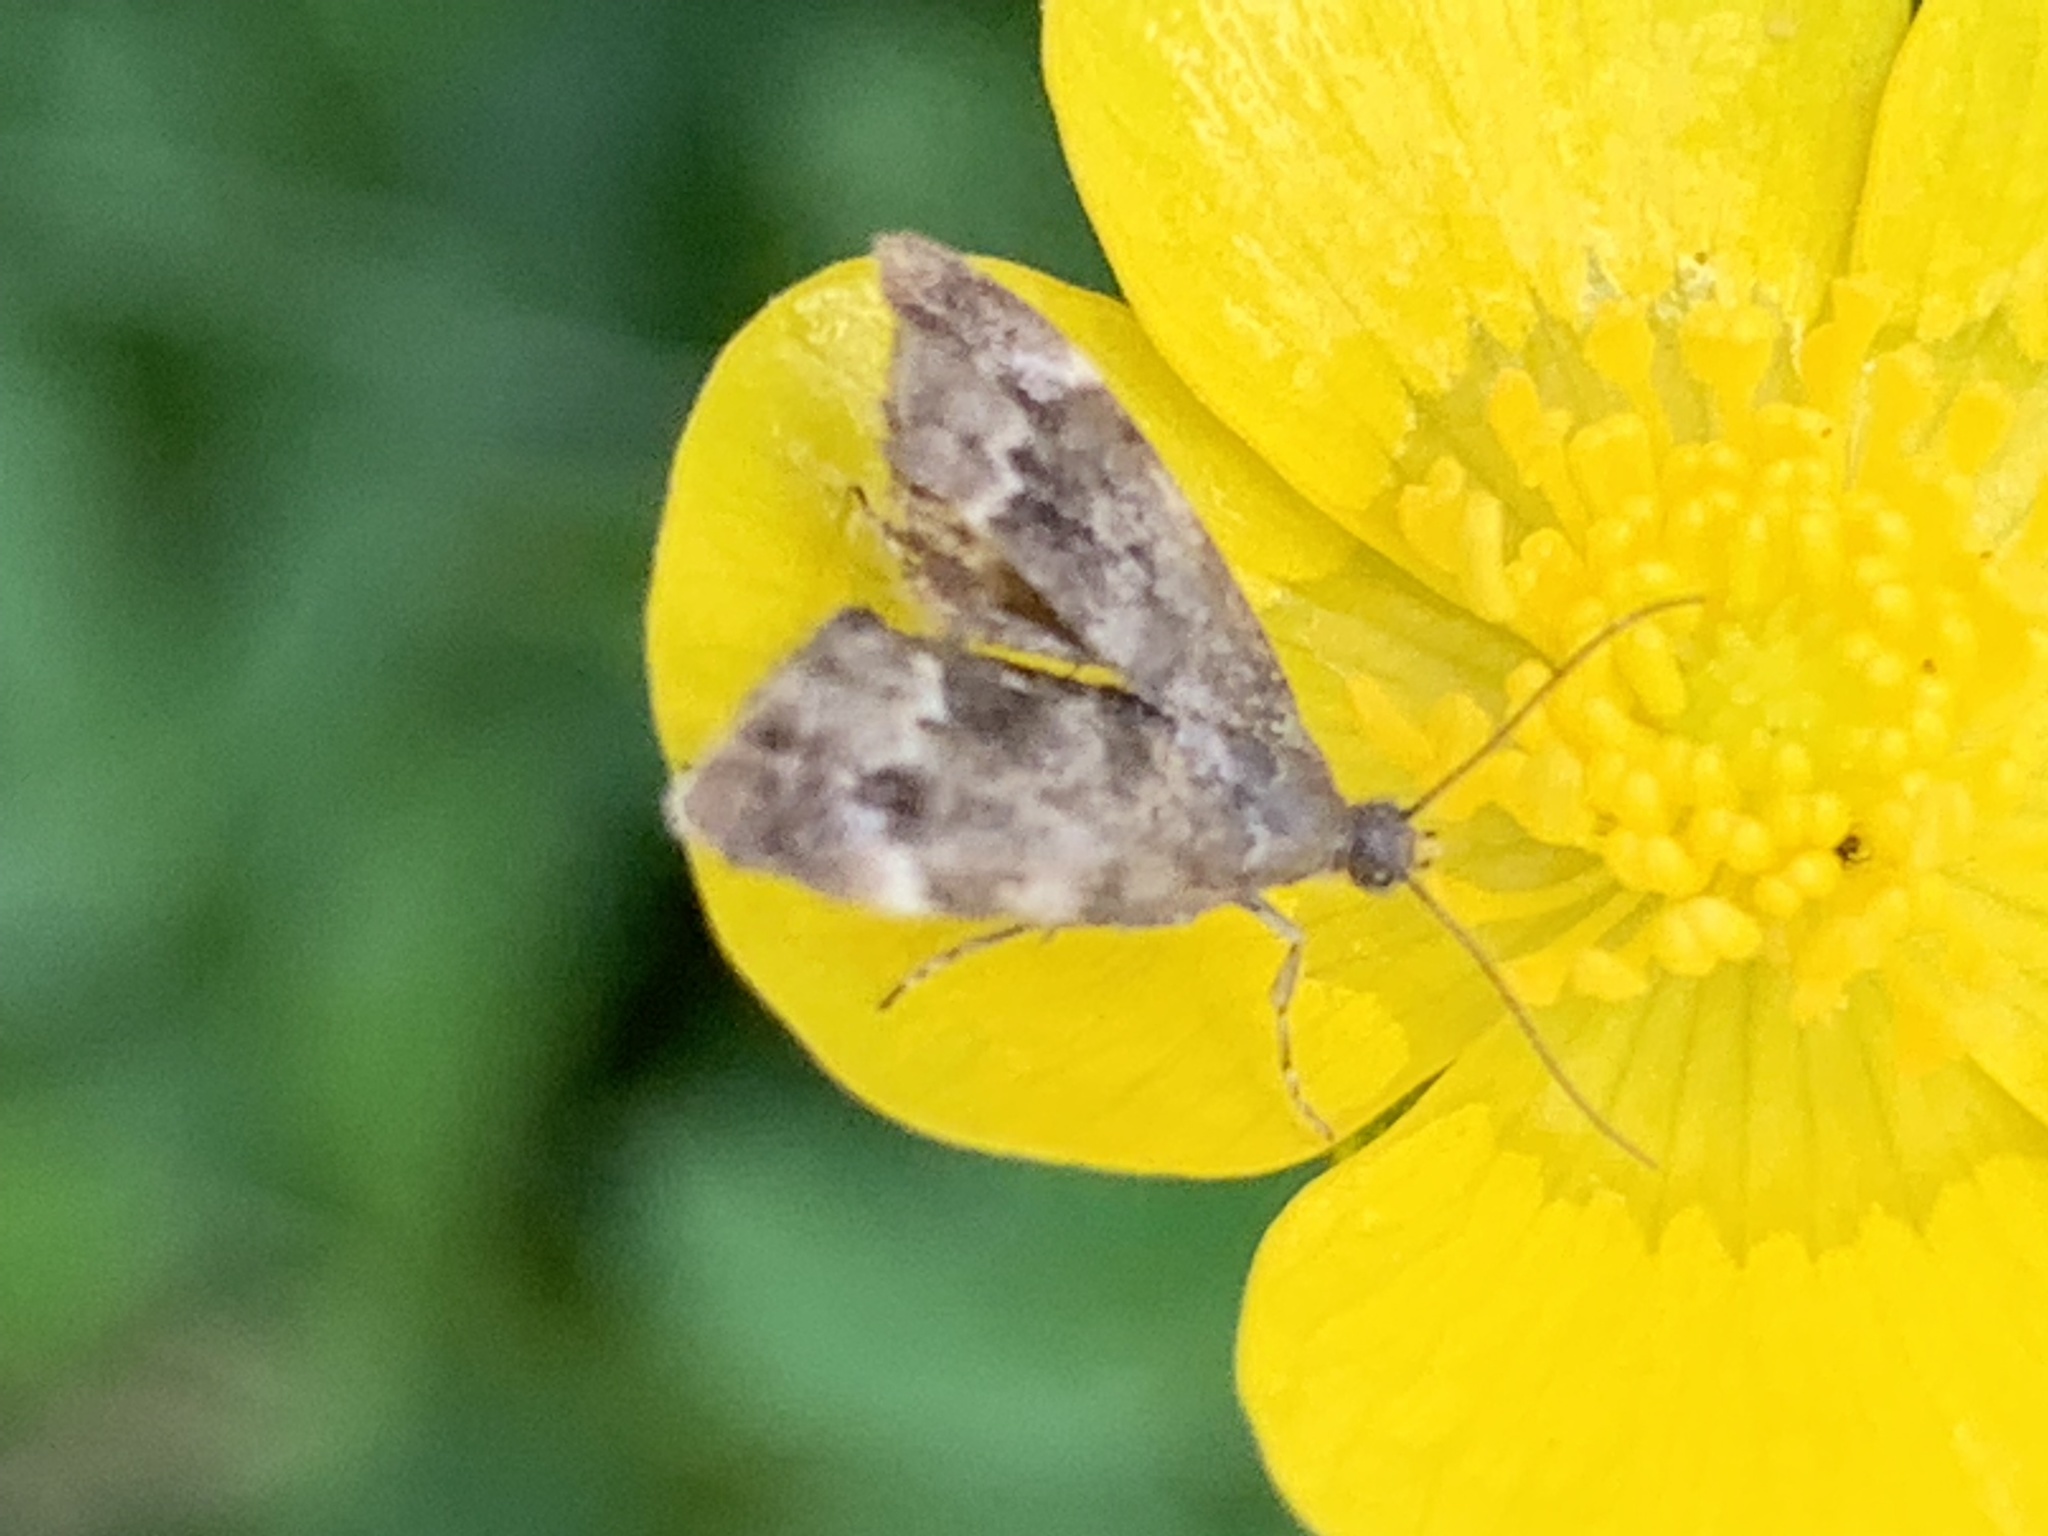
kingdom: Animalia
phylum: Arthropoda
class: Insecta
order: Lepidoptera
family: Choreutidae
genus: Anthophila
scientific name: Anthophila fabriciana
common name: Nettle-tap
